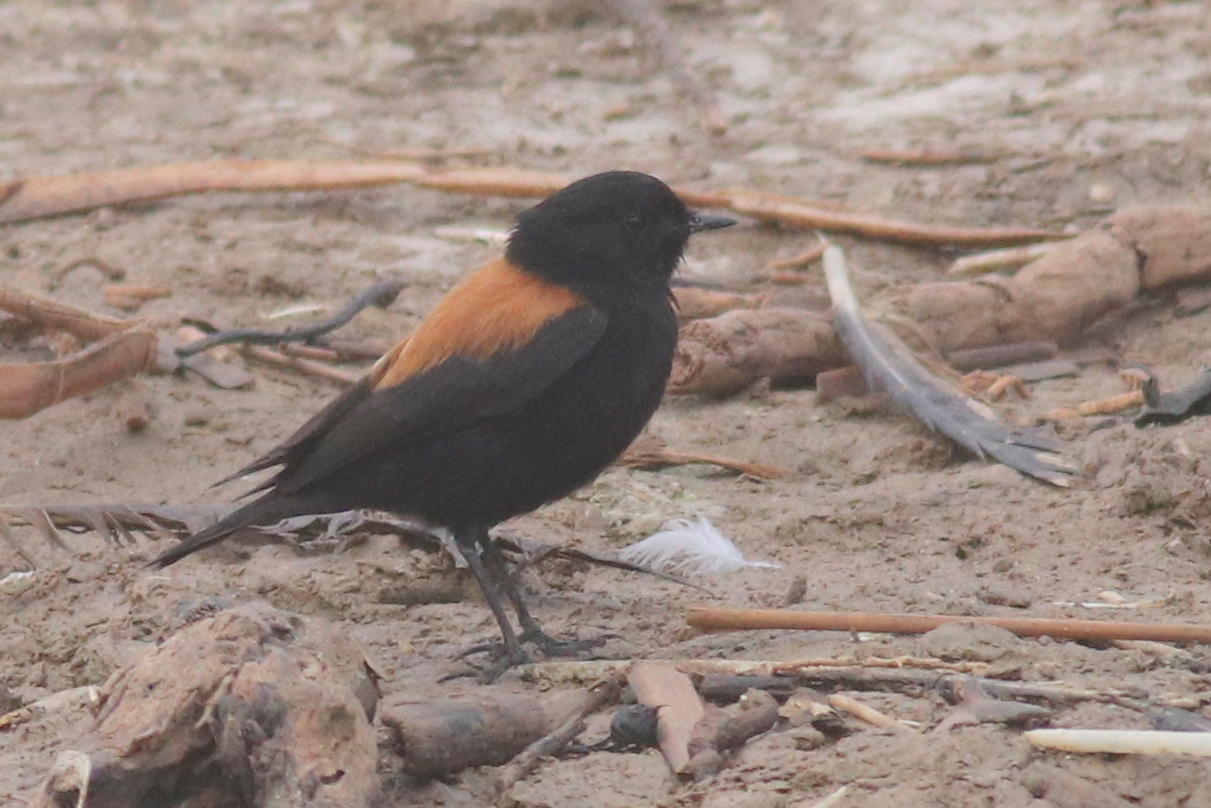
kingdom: Animalia
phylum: Chordata
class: Aves
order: Passeriformes
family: Tyrannidae
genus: Lessonia
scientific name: Lessonia rufa
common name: Austral negrito
